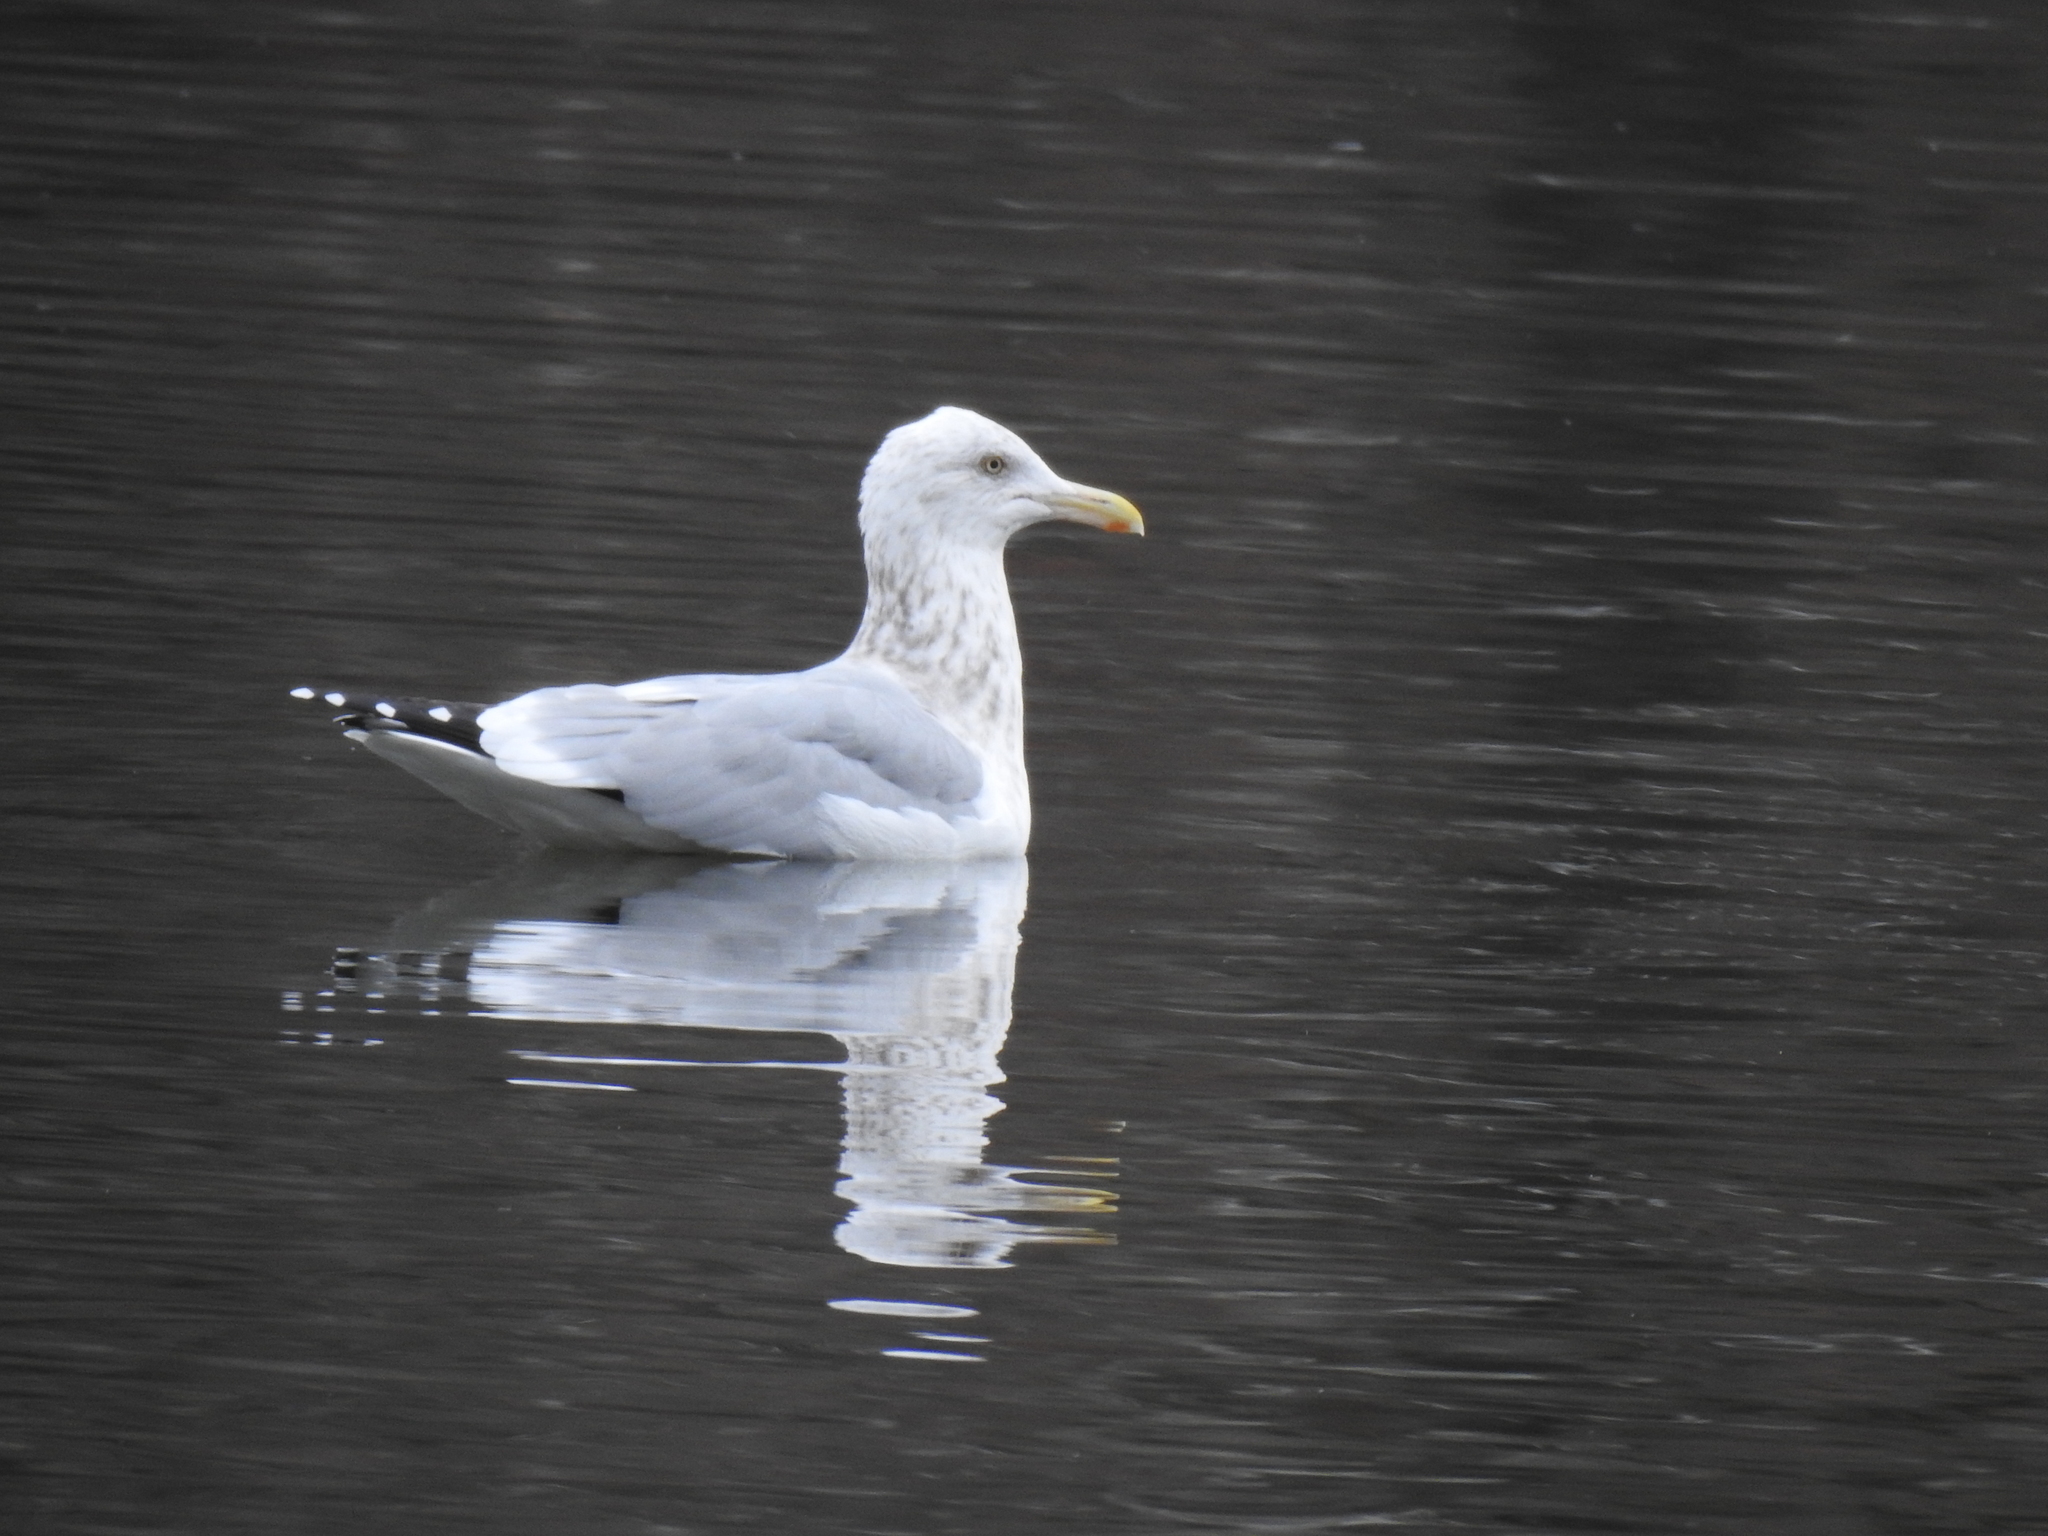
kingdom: Animalia
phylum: Chordata
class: Aves
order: Charadriiformes
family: Laridae
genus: Larus
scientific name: Larus argentatus
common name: Herring gull
